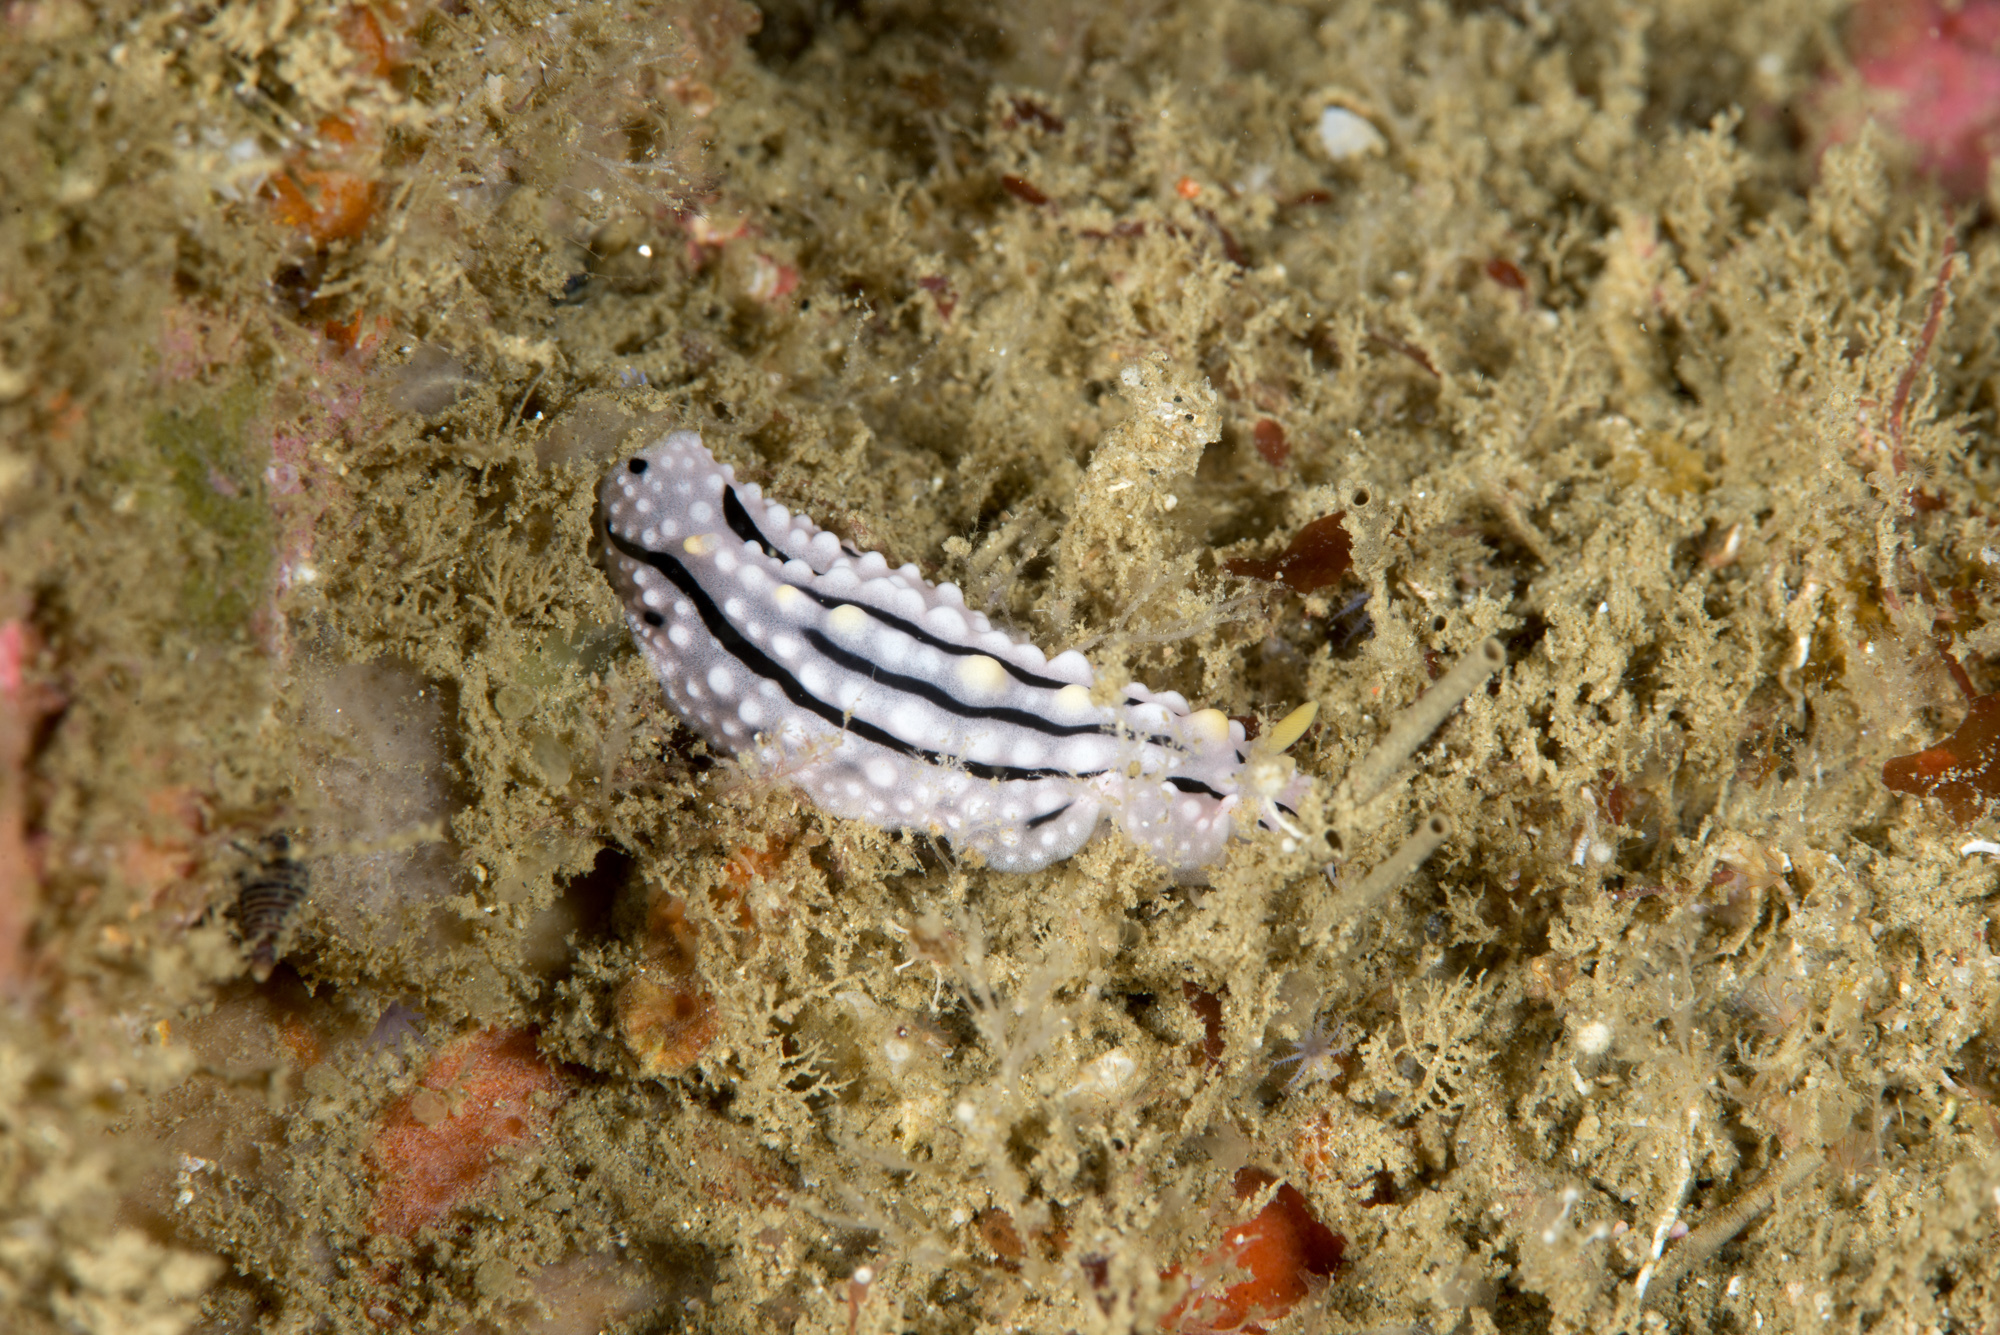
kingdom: Animalia
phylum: Mollusca
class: Gastropoda
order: Nudibranchia
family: Phyllidiidae
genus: Phyllidia
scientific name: Phyllidia alyta
